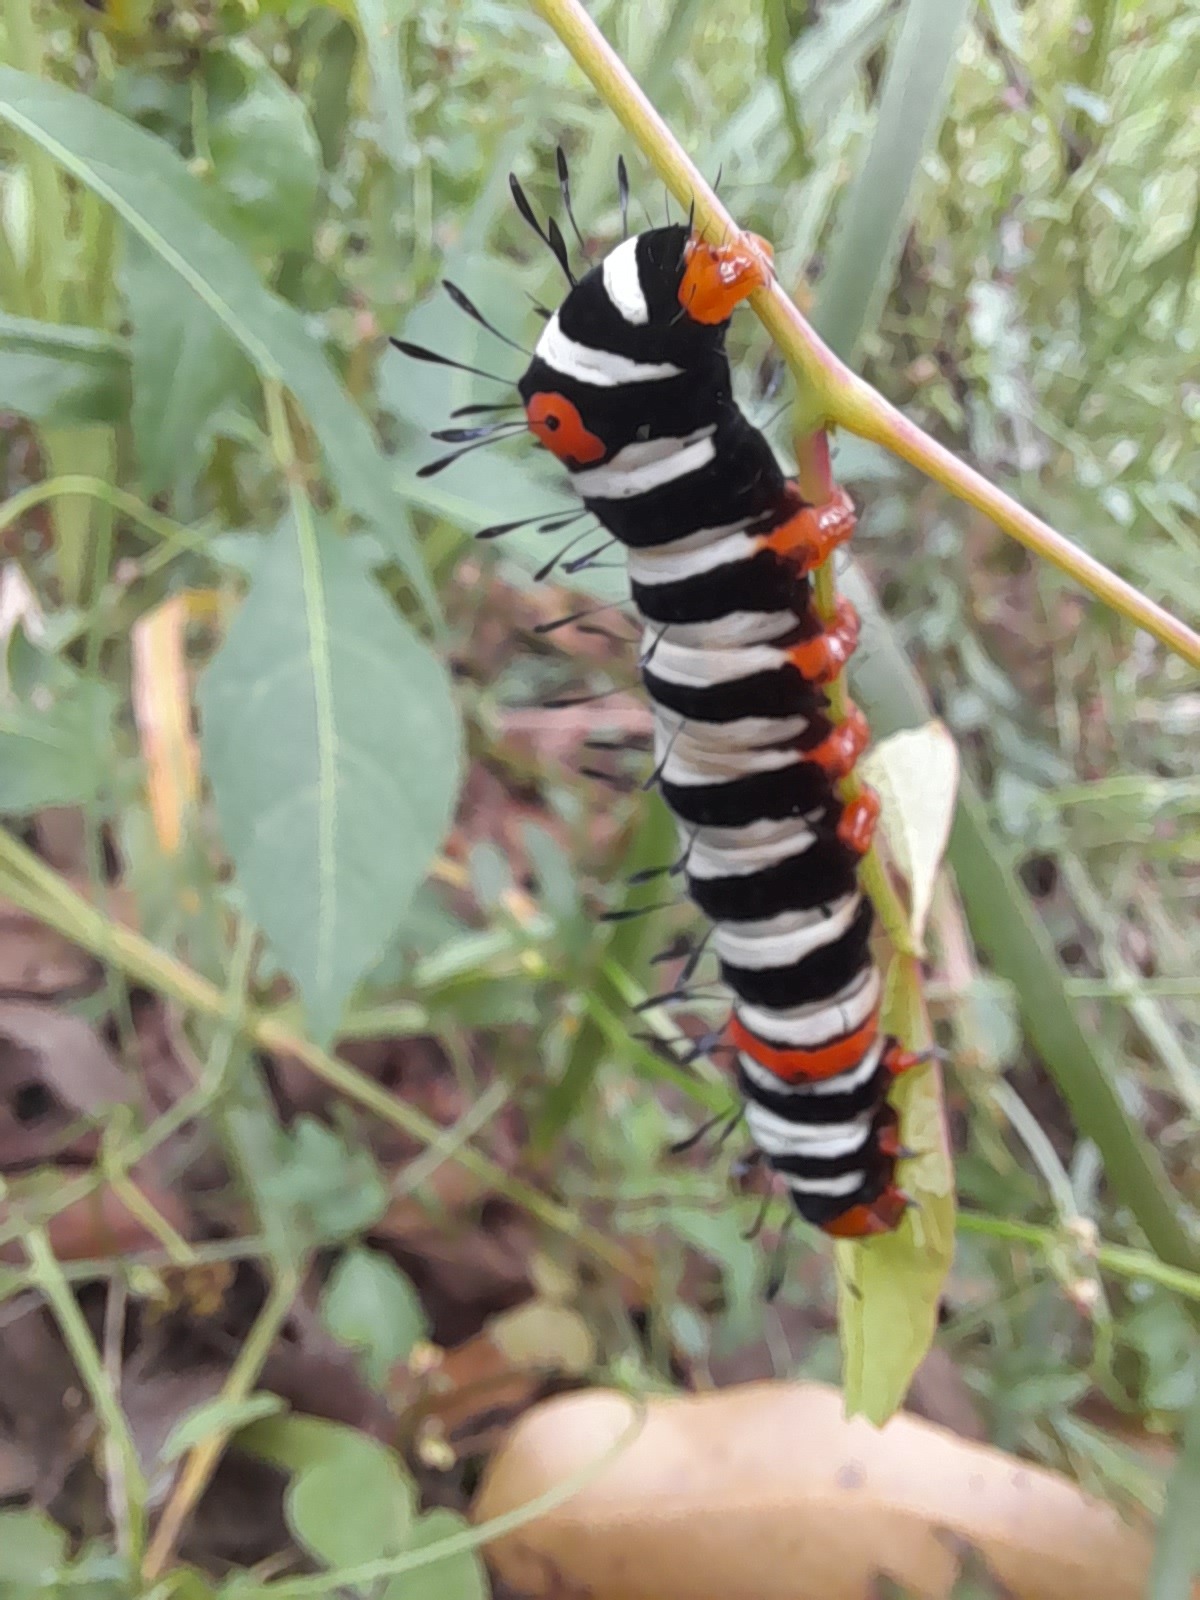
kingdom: Animalia
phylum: Arthropoda
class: Insecta
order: Lepidoptera
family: Noctuidae
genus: Agarista
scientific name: Agarista agricola
